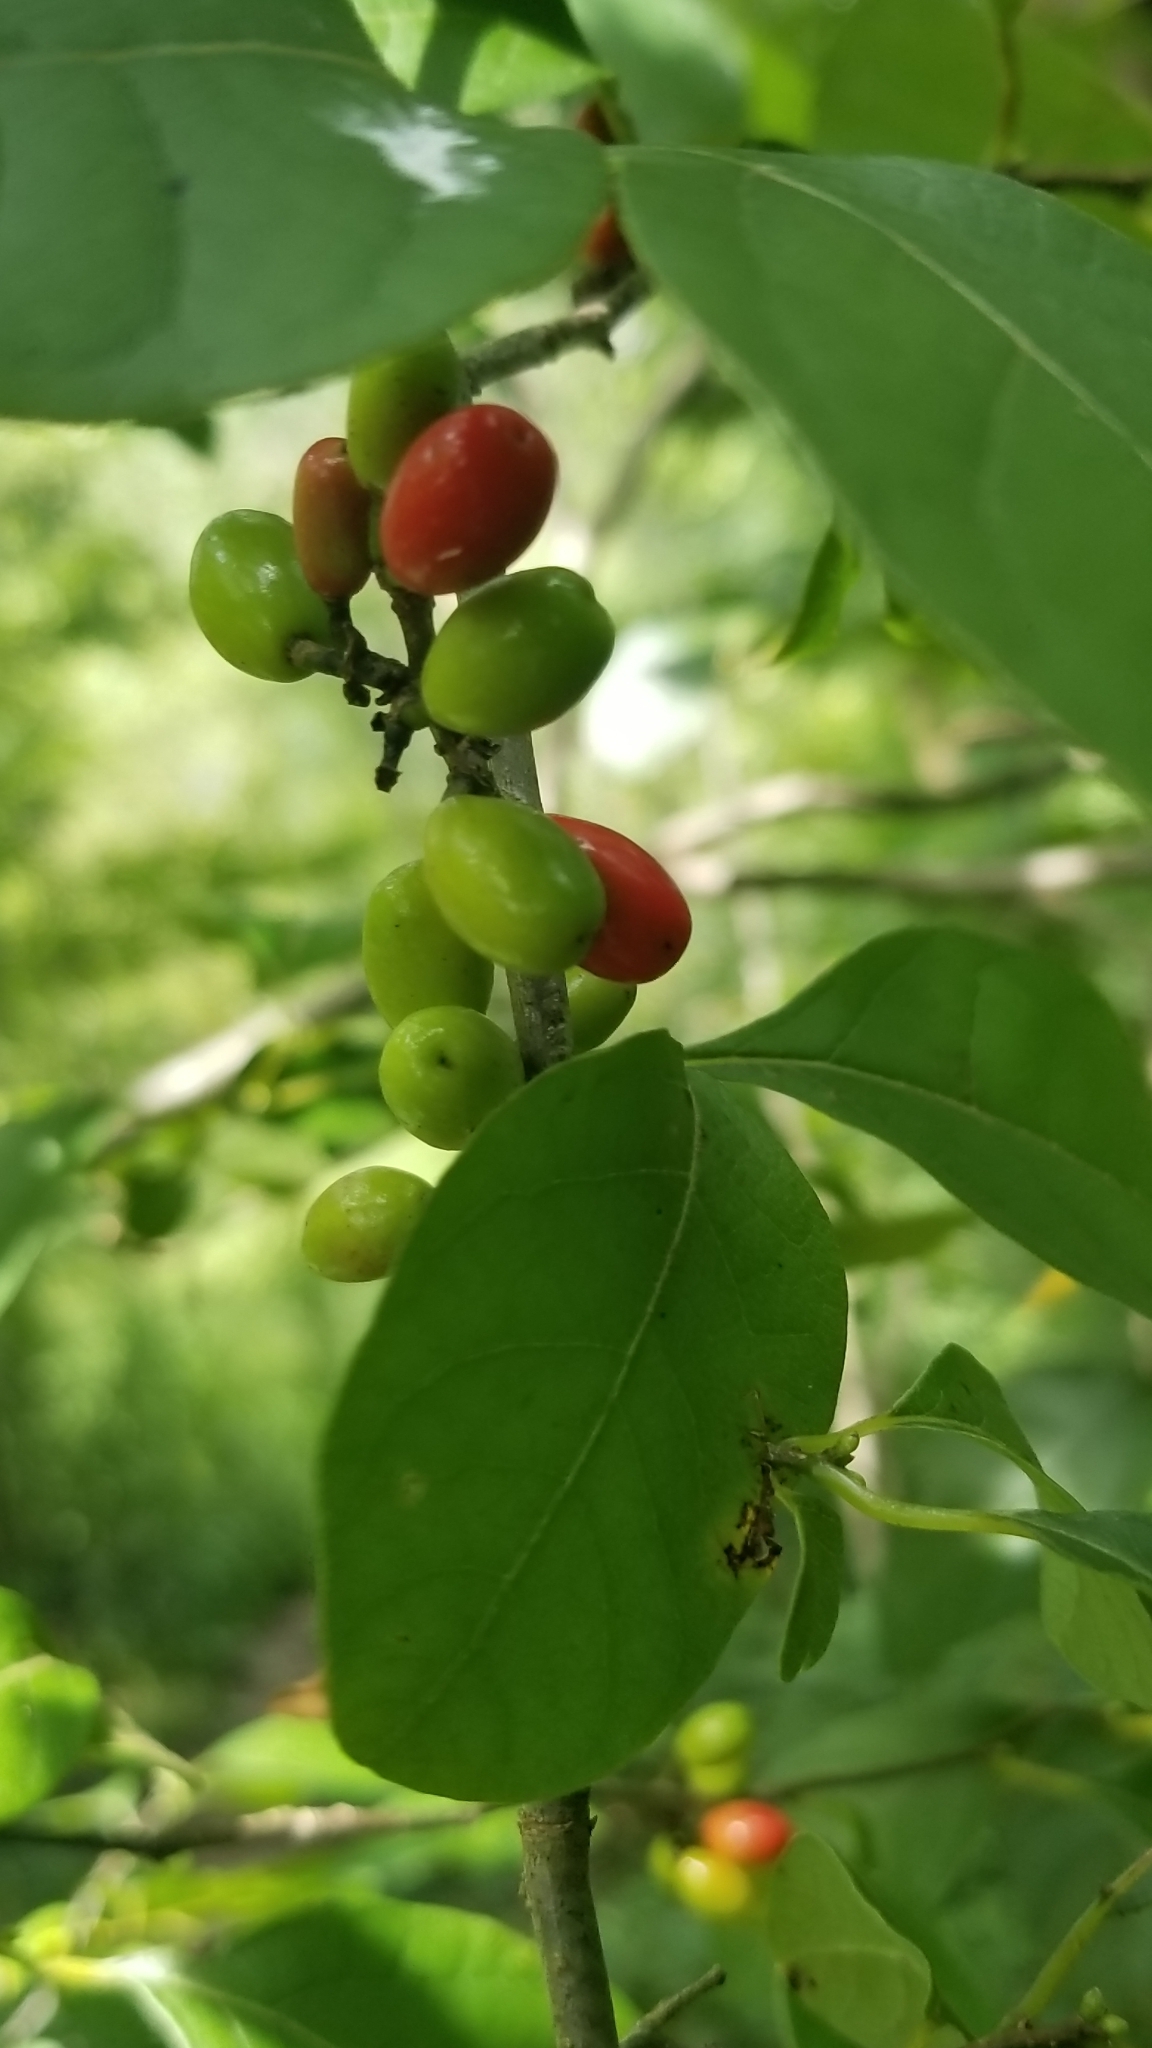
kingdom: Plantae
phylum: Tracheophyta
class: Magnoliopsida
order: Laurales
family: Lauraceae
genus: Lindera
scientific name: Lindera benzoin
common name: Spicebush
